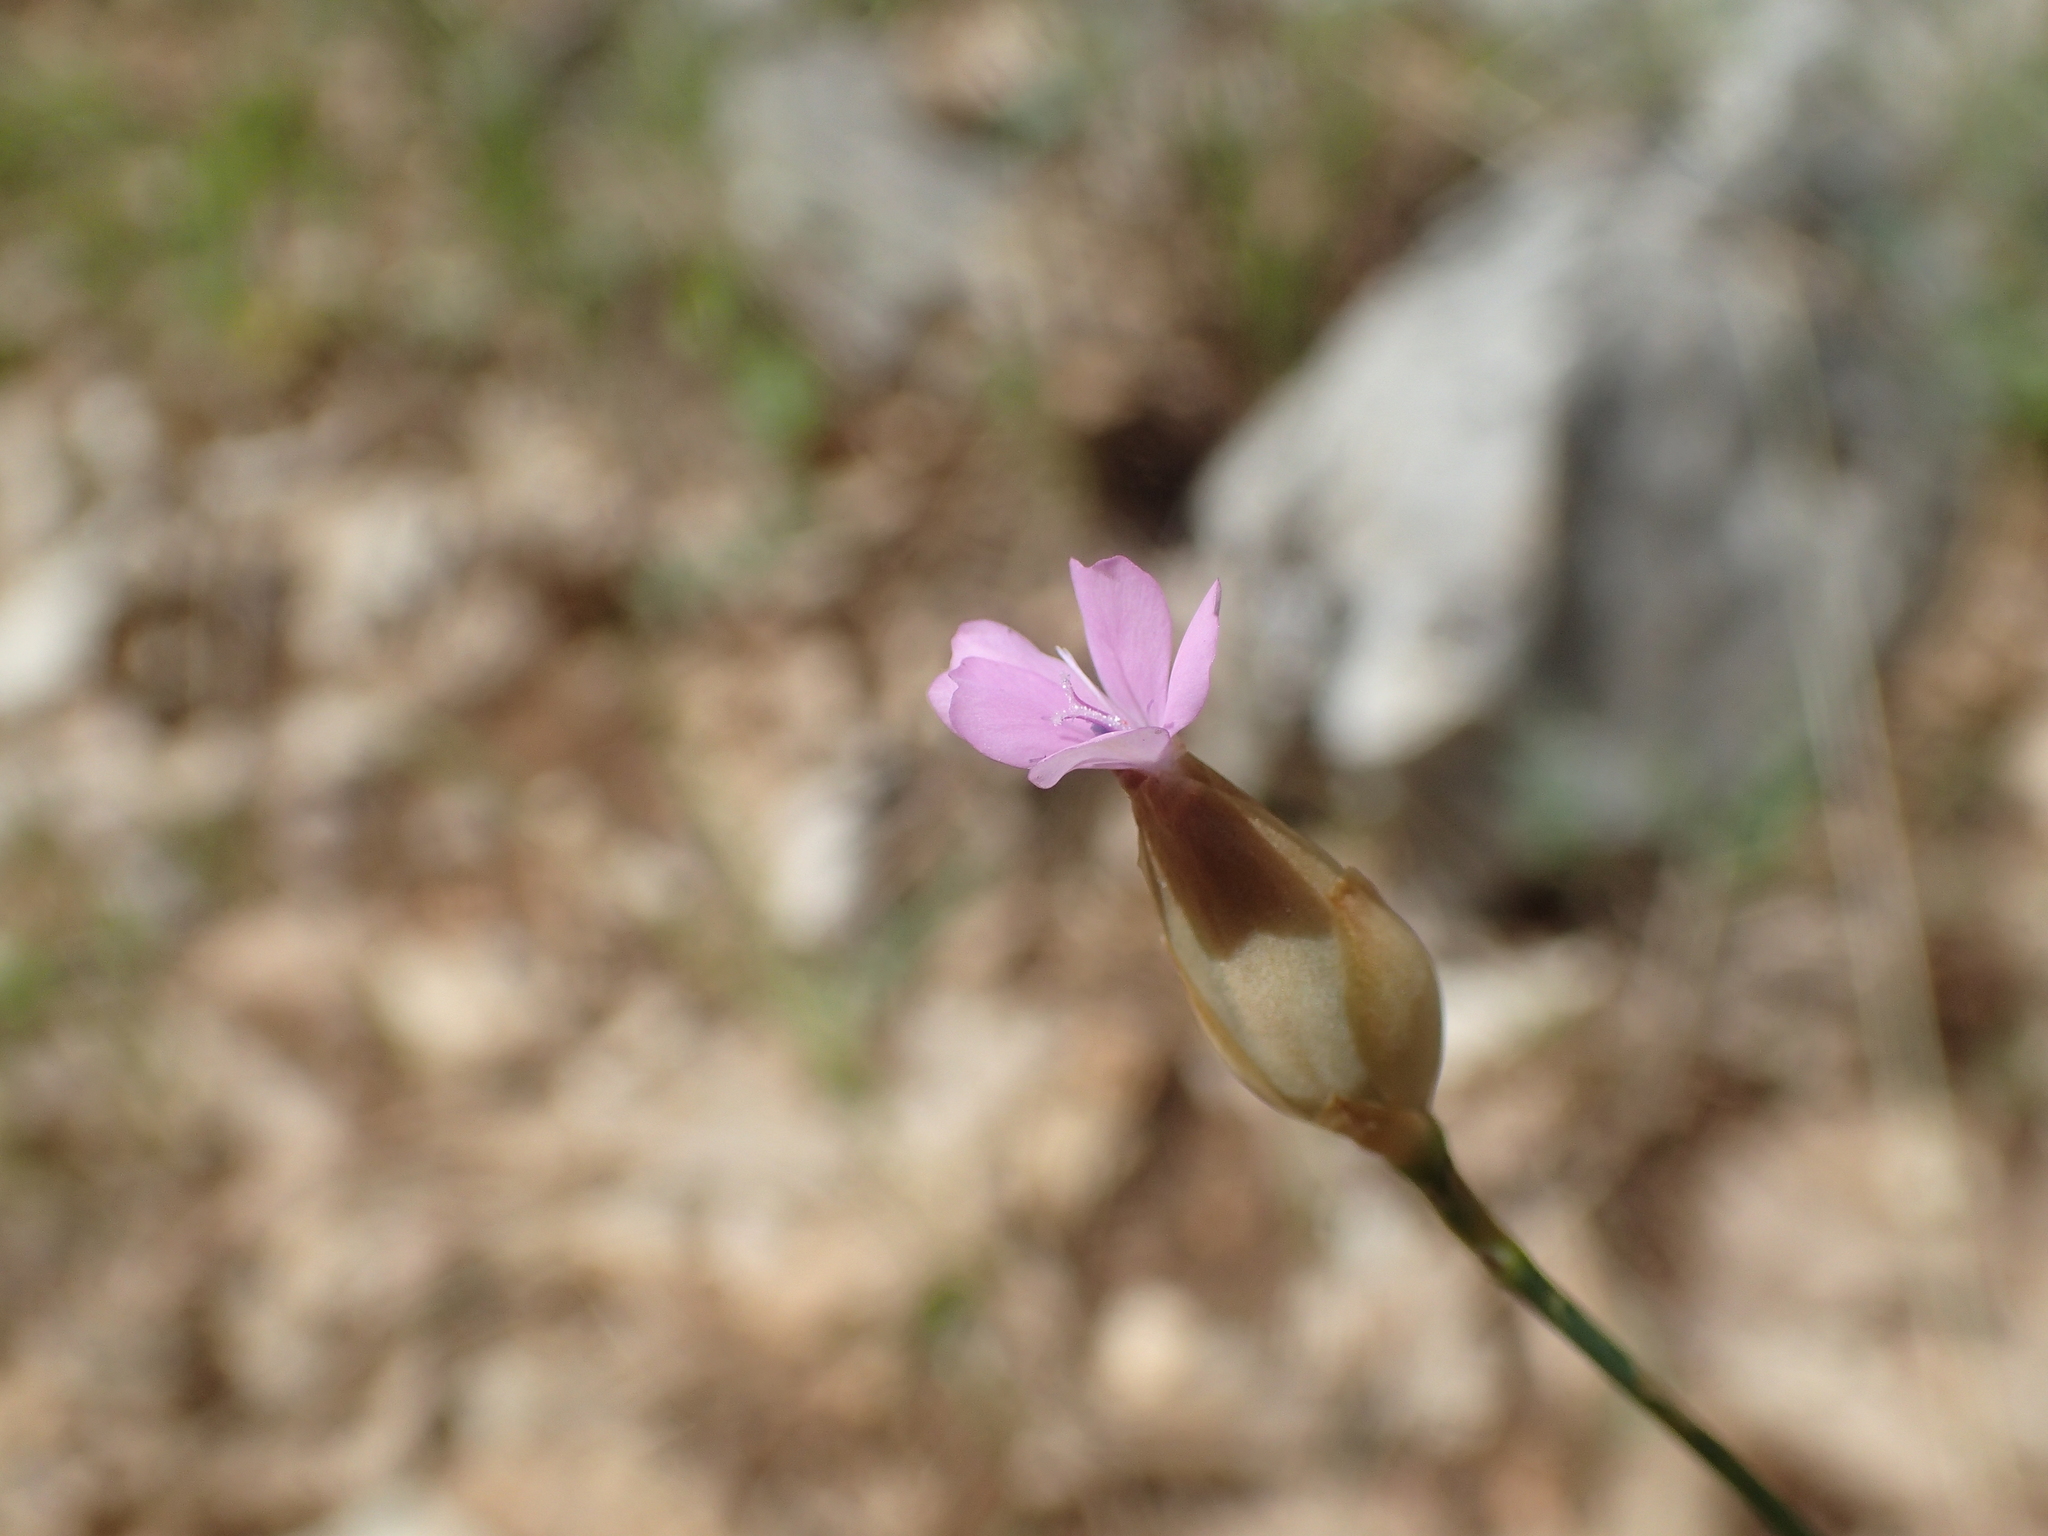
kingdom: Plantae
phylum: Tracheophyta
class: Magnoliopsida
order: Caryophyllales
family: Caryophyllaceae
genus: Petrorhagia
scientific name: Petrorhagia prolifera
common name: Proliferous pink
